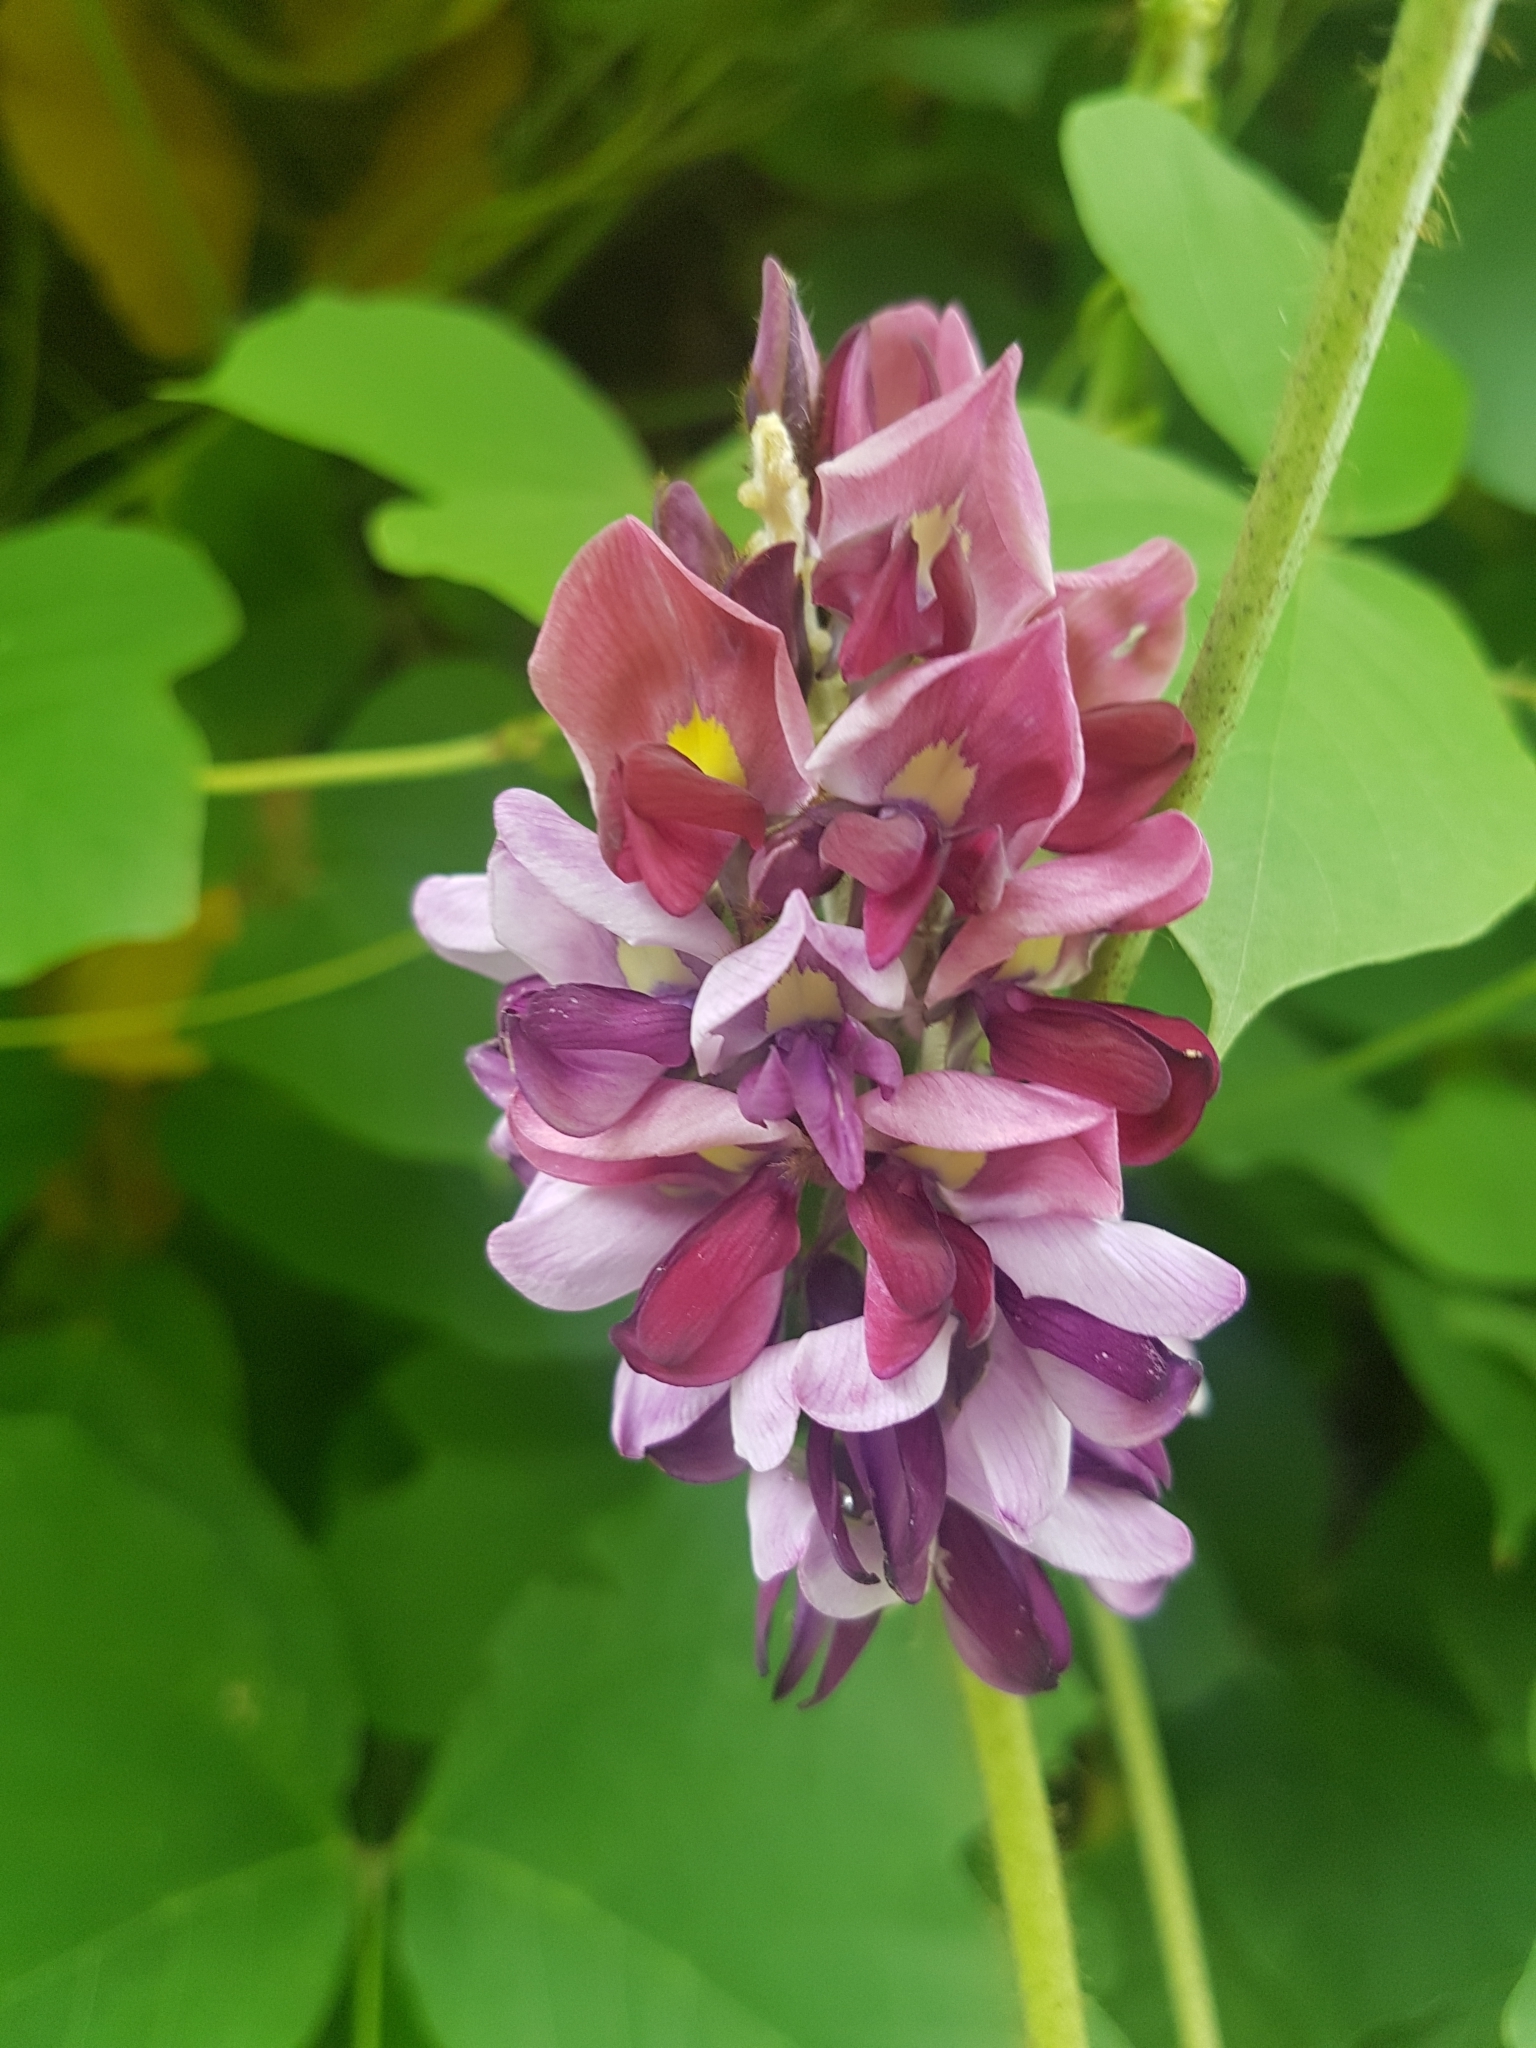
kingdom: Plantae
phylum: Tracheophyta
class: Magnoliopsida
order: Fabales
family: Fabaceae
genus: Pueraria
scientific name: Pueraria montana
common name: Kudzu
